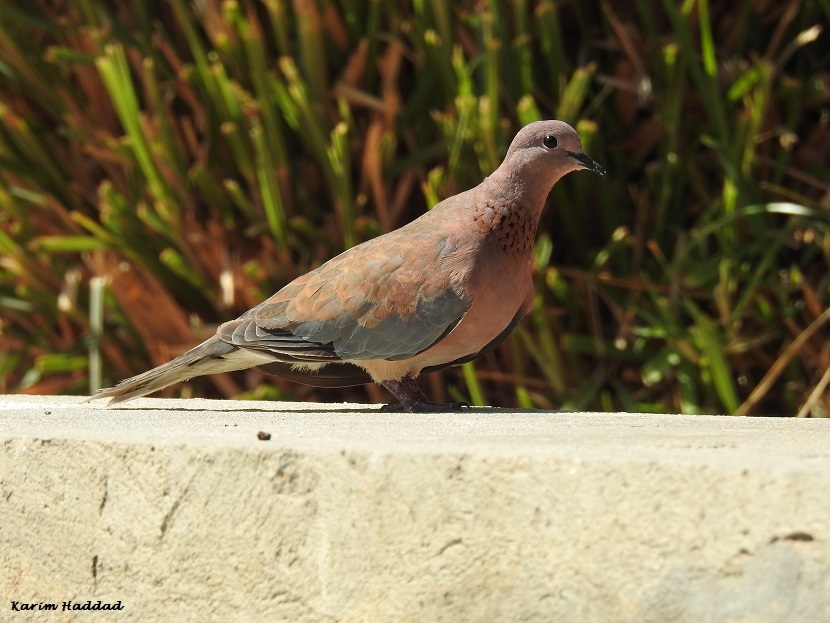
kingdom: Animalia
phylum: Chordata
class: Aves
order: Columbiformes
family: Columbidae
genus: Spilopelia
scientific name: Spilopelia senegalensis
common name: Laughing dove
